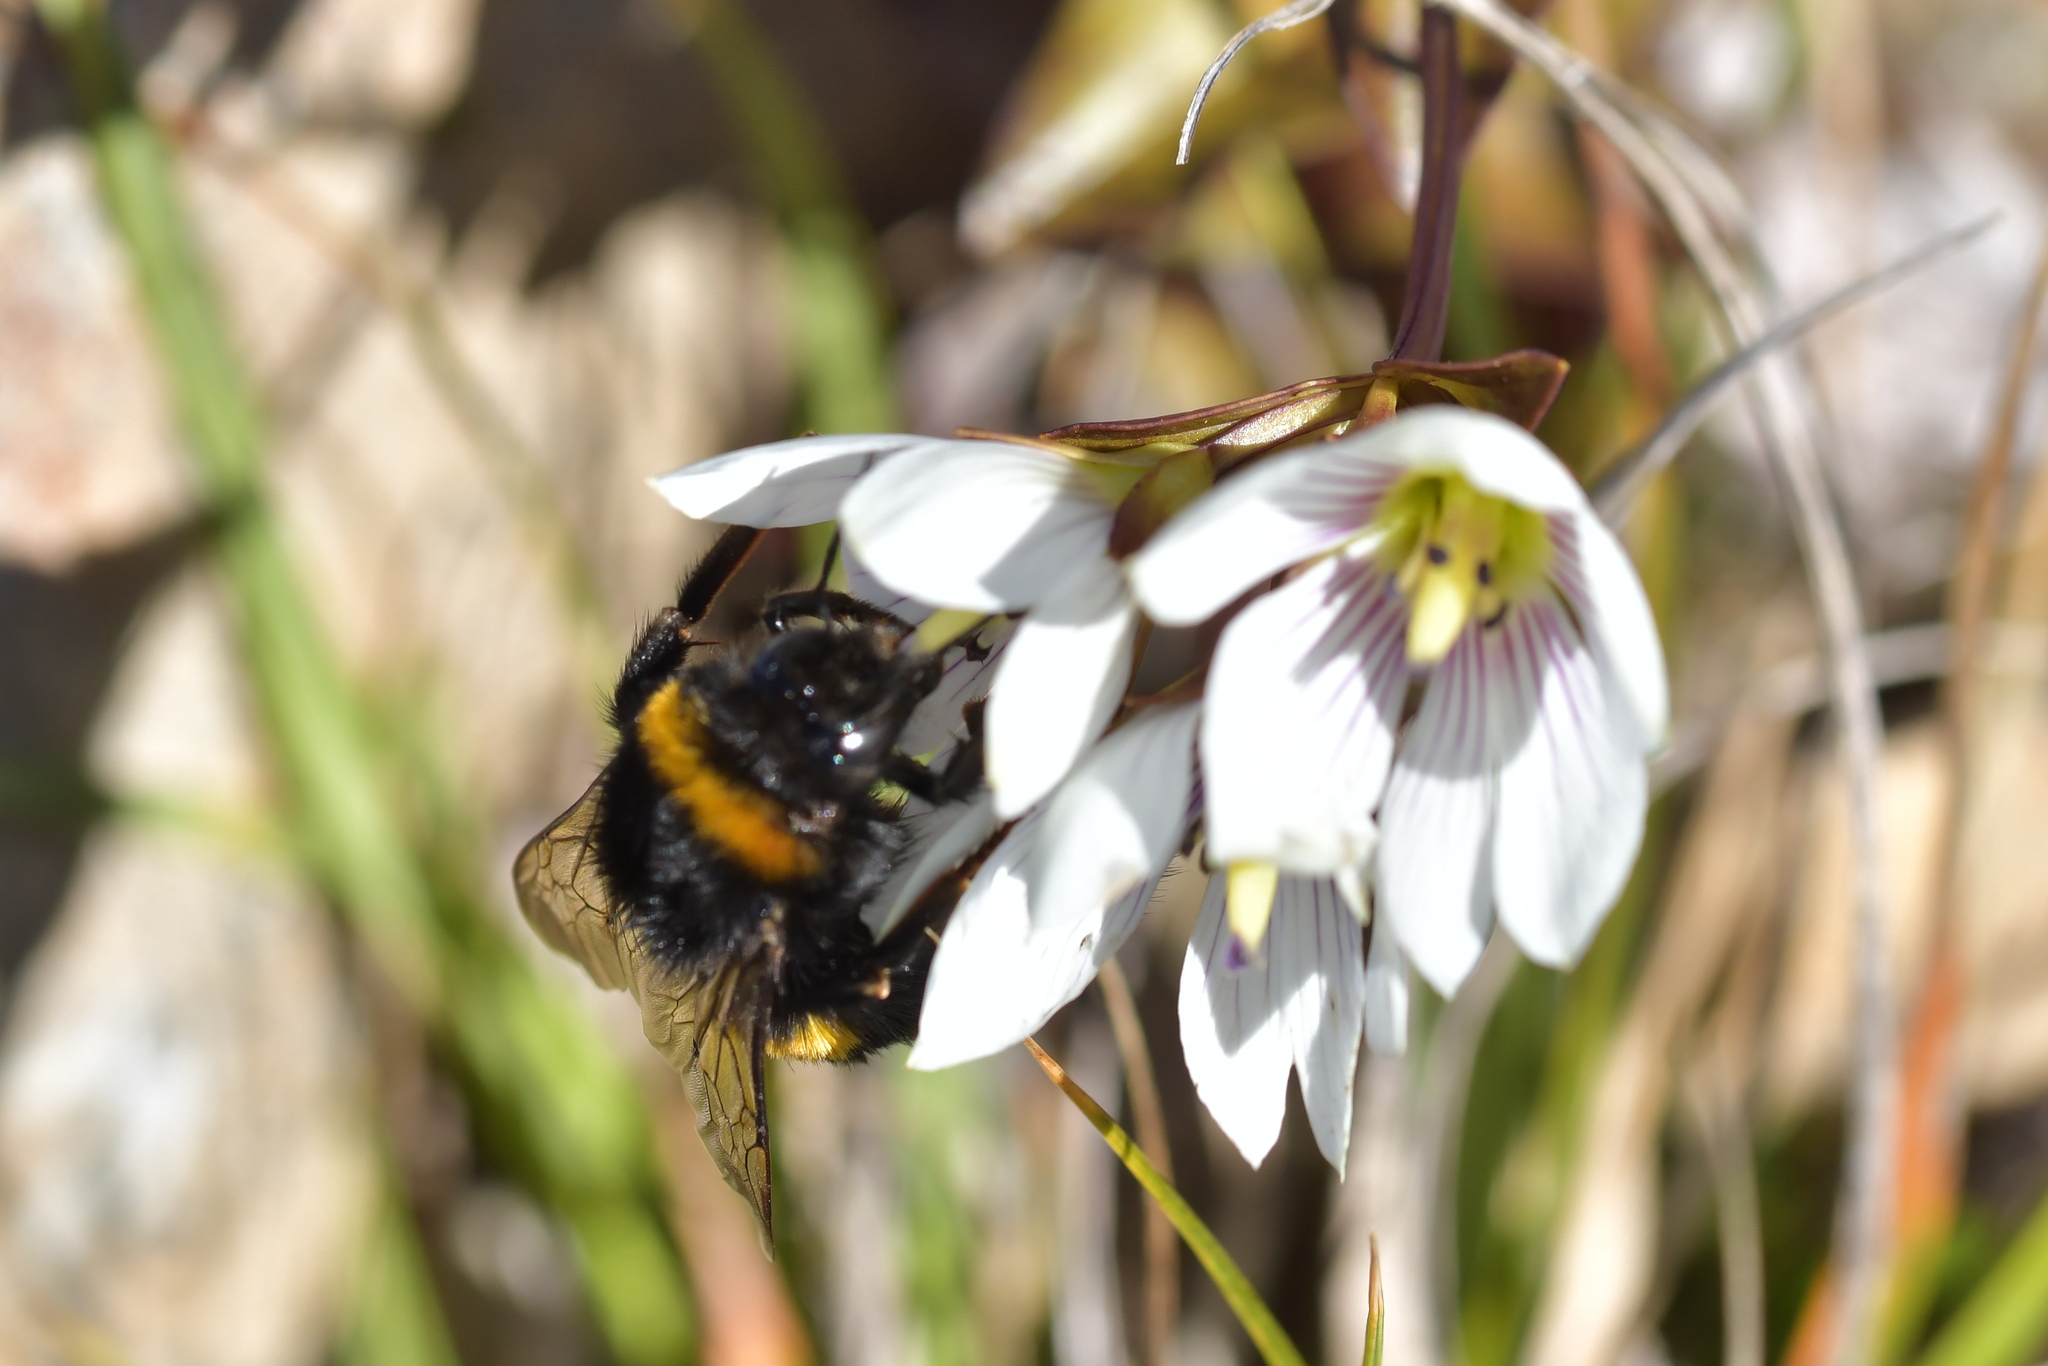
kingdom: Animalia
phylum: Arthropoda
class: Insecta
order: Hymenoptera
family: Apidae
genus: Bombus
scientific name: Bombus terrestris
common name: Buff-tailed bumblebee
